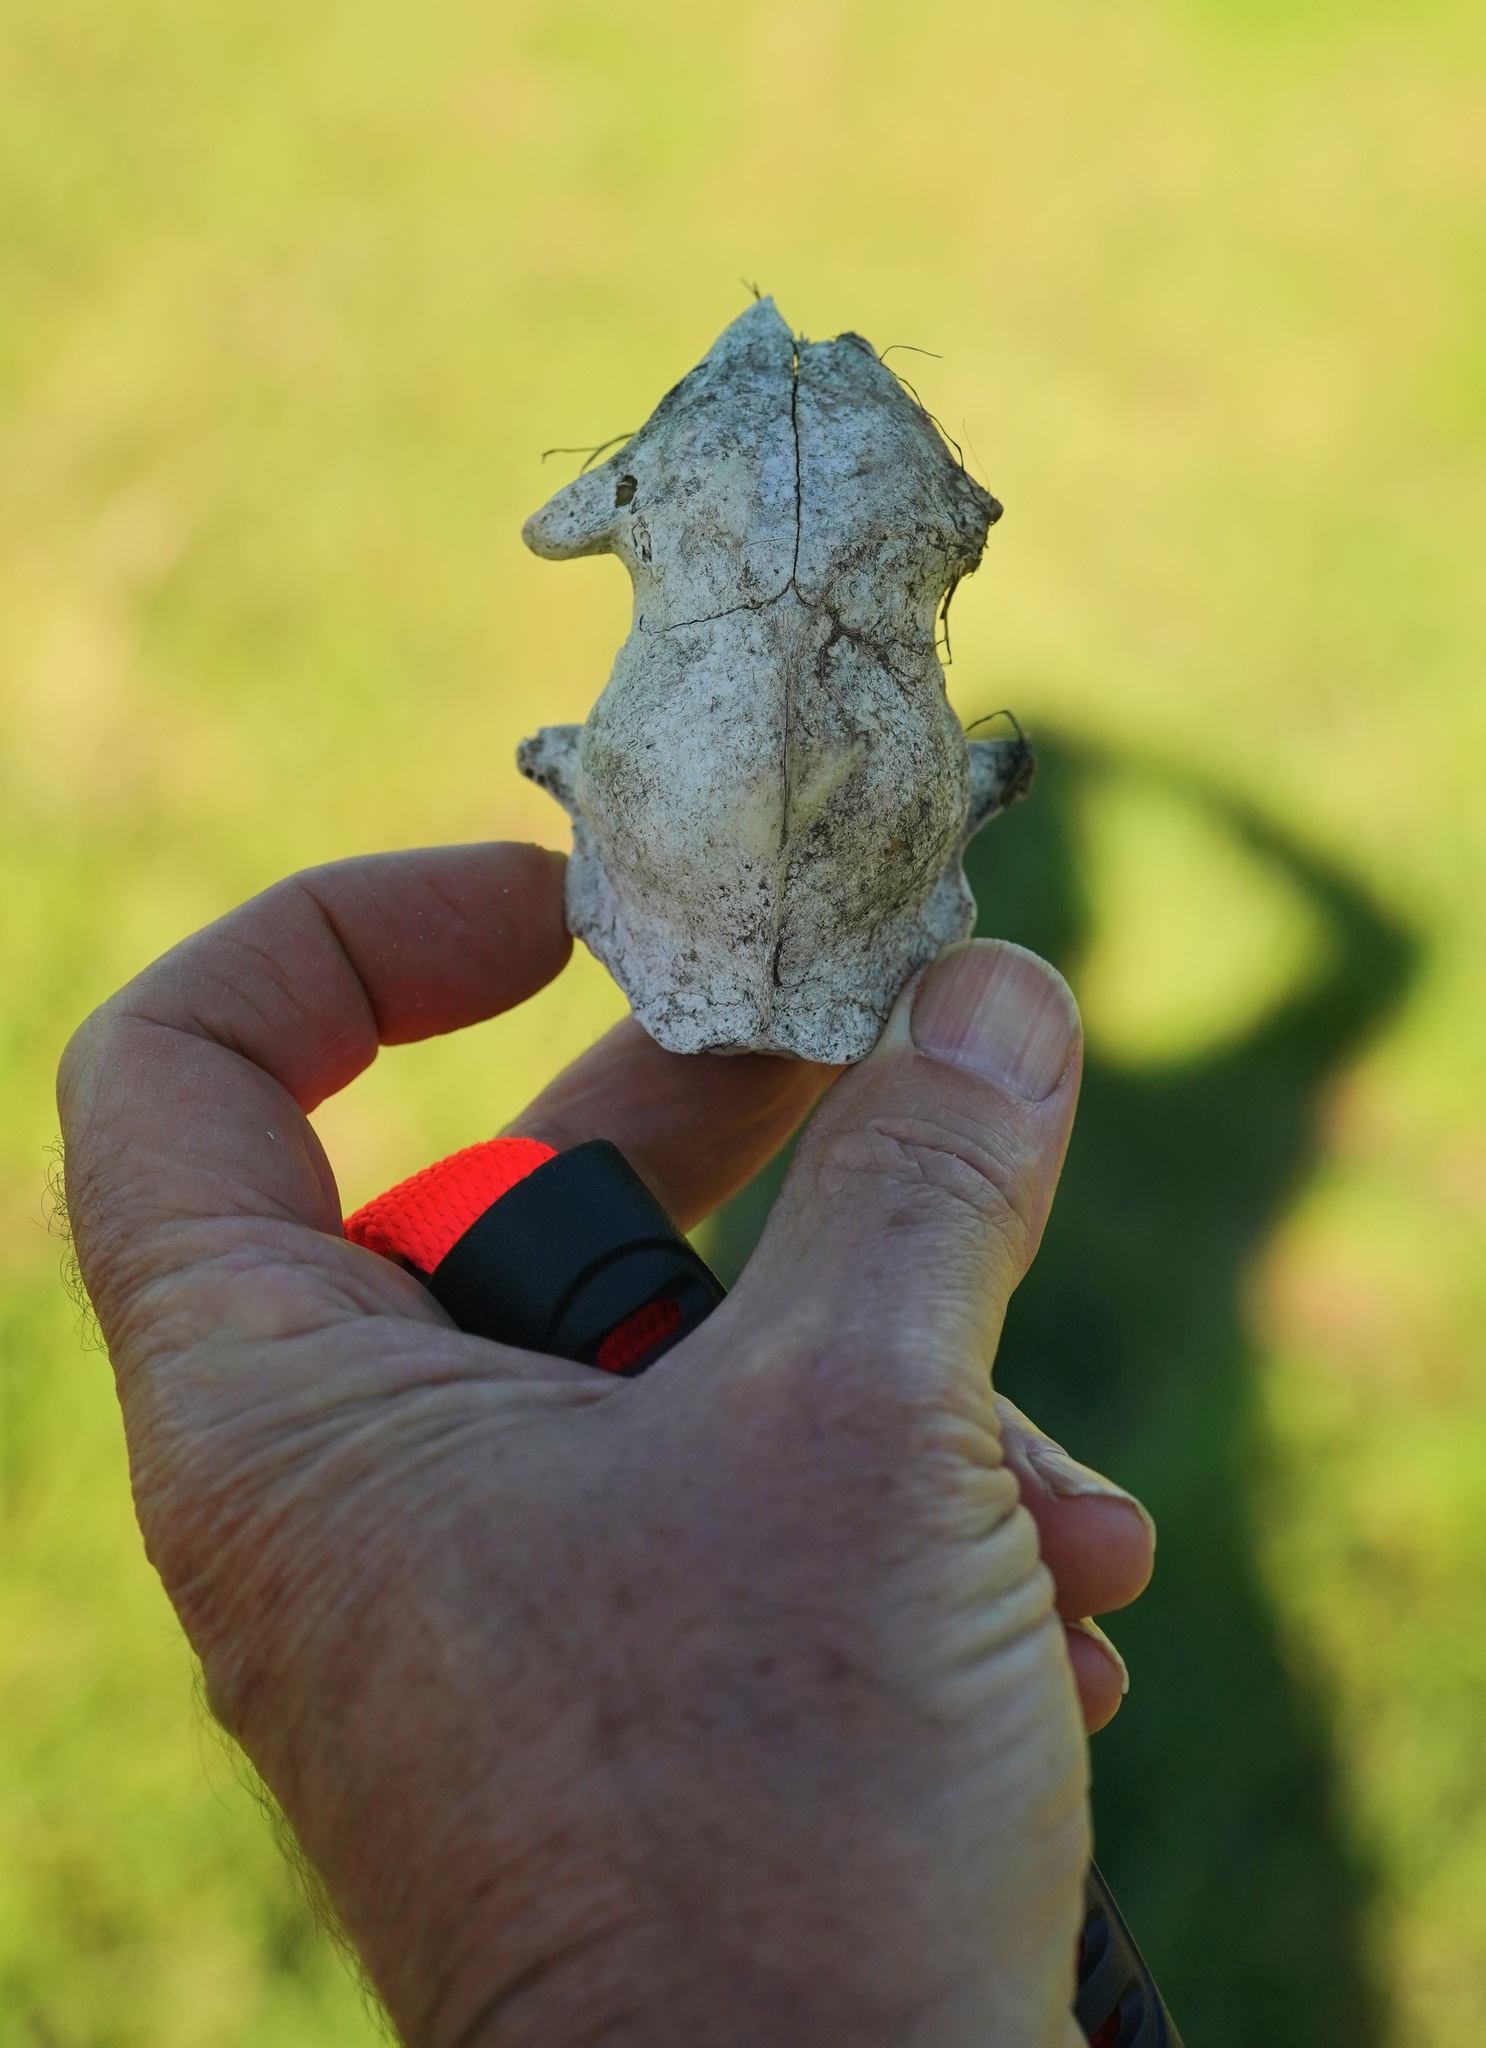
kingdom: Animalia
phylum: Chordata
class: Mammalia
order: Carnivora
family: Felidae
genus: Felis
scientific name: Felis catus
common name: Domestic cat
